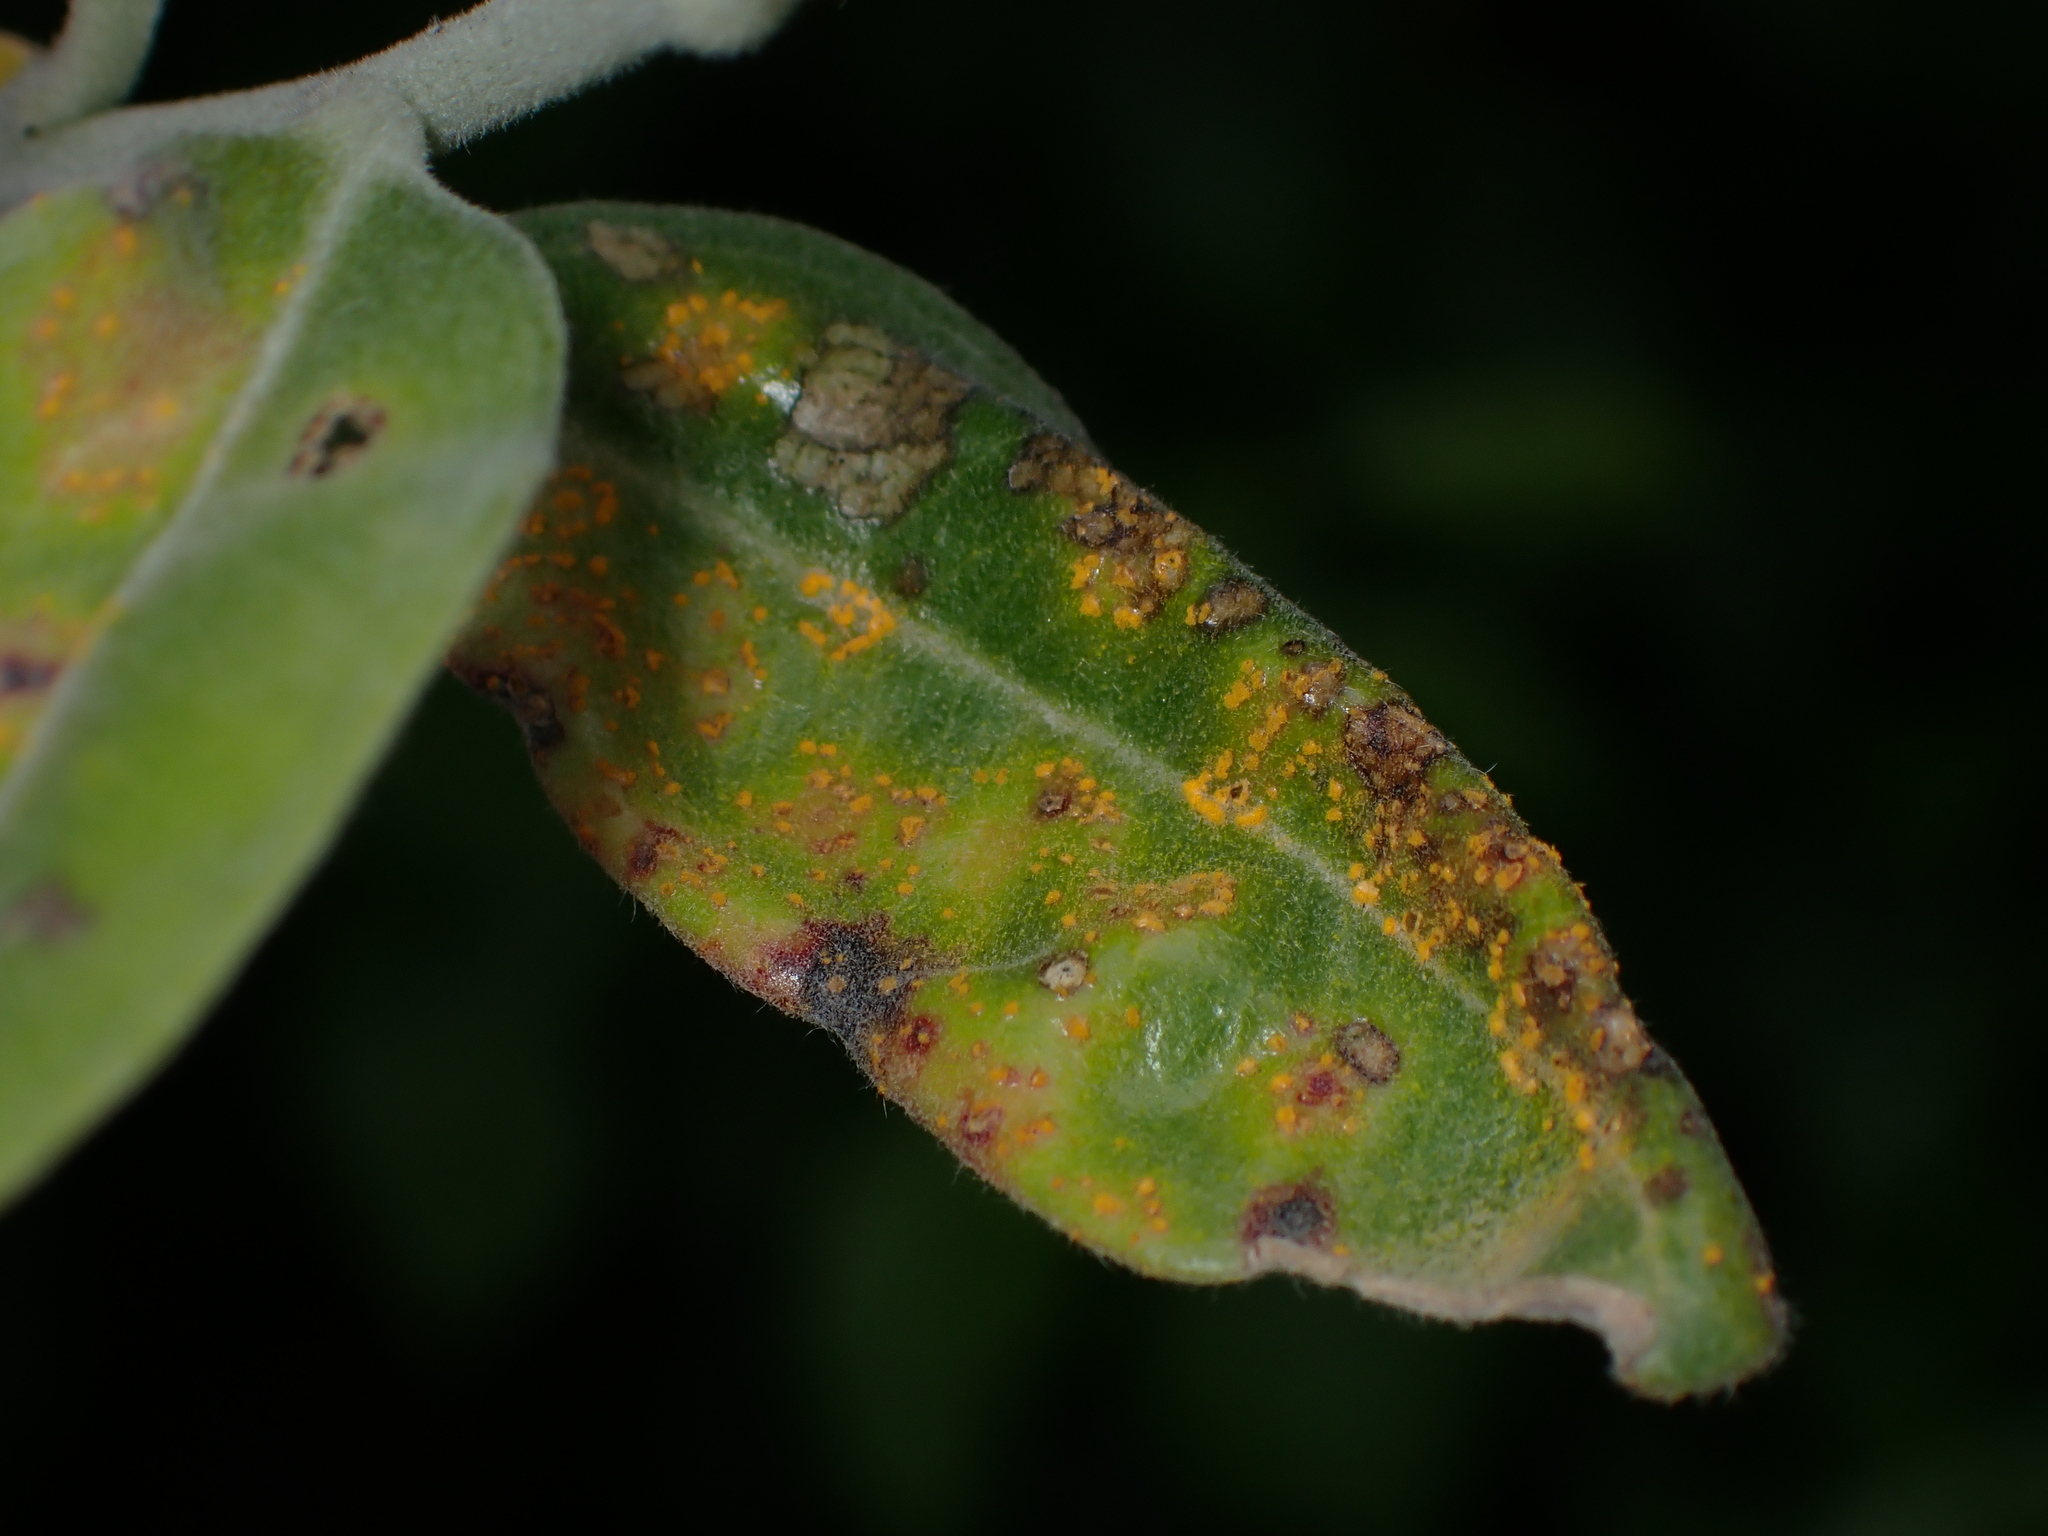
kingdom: Fungi
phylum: Basidiomycota
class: Pucciniomycetes
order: Pucciniales
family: Sphaerophragmiaceae
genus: Austropuccinia
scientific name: Austropuccinia psidii
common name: Myrtle rust
